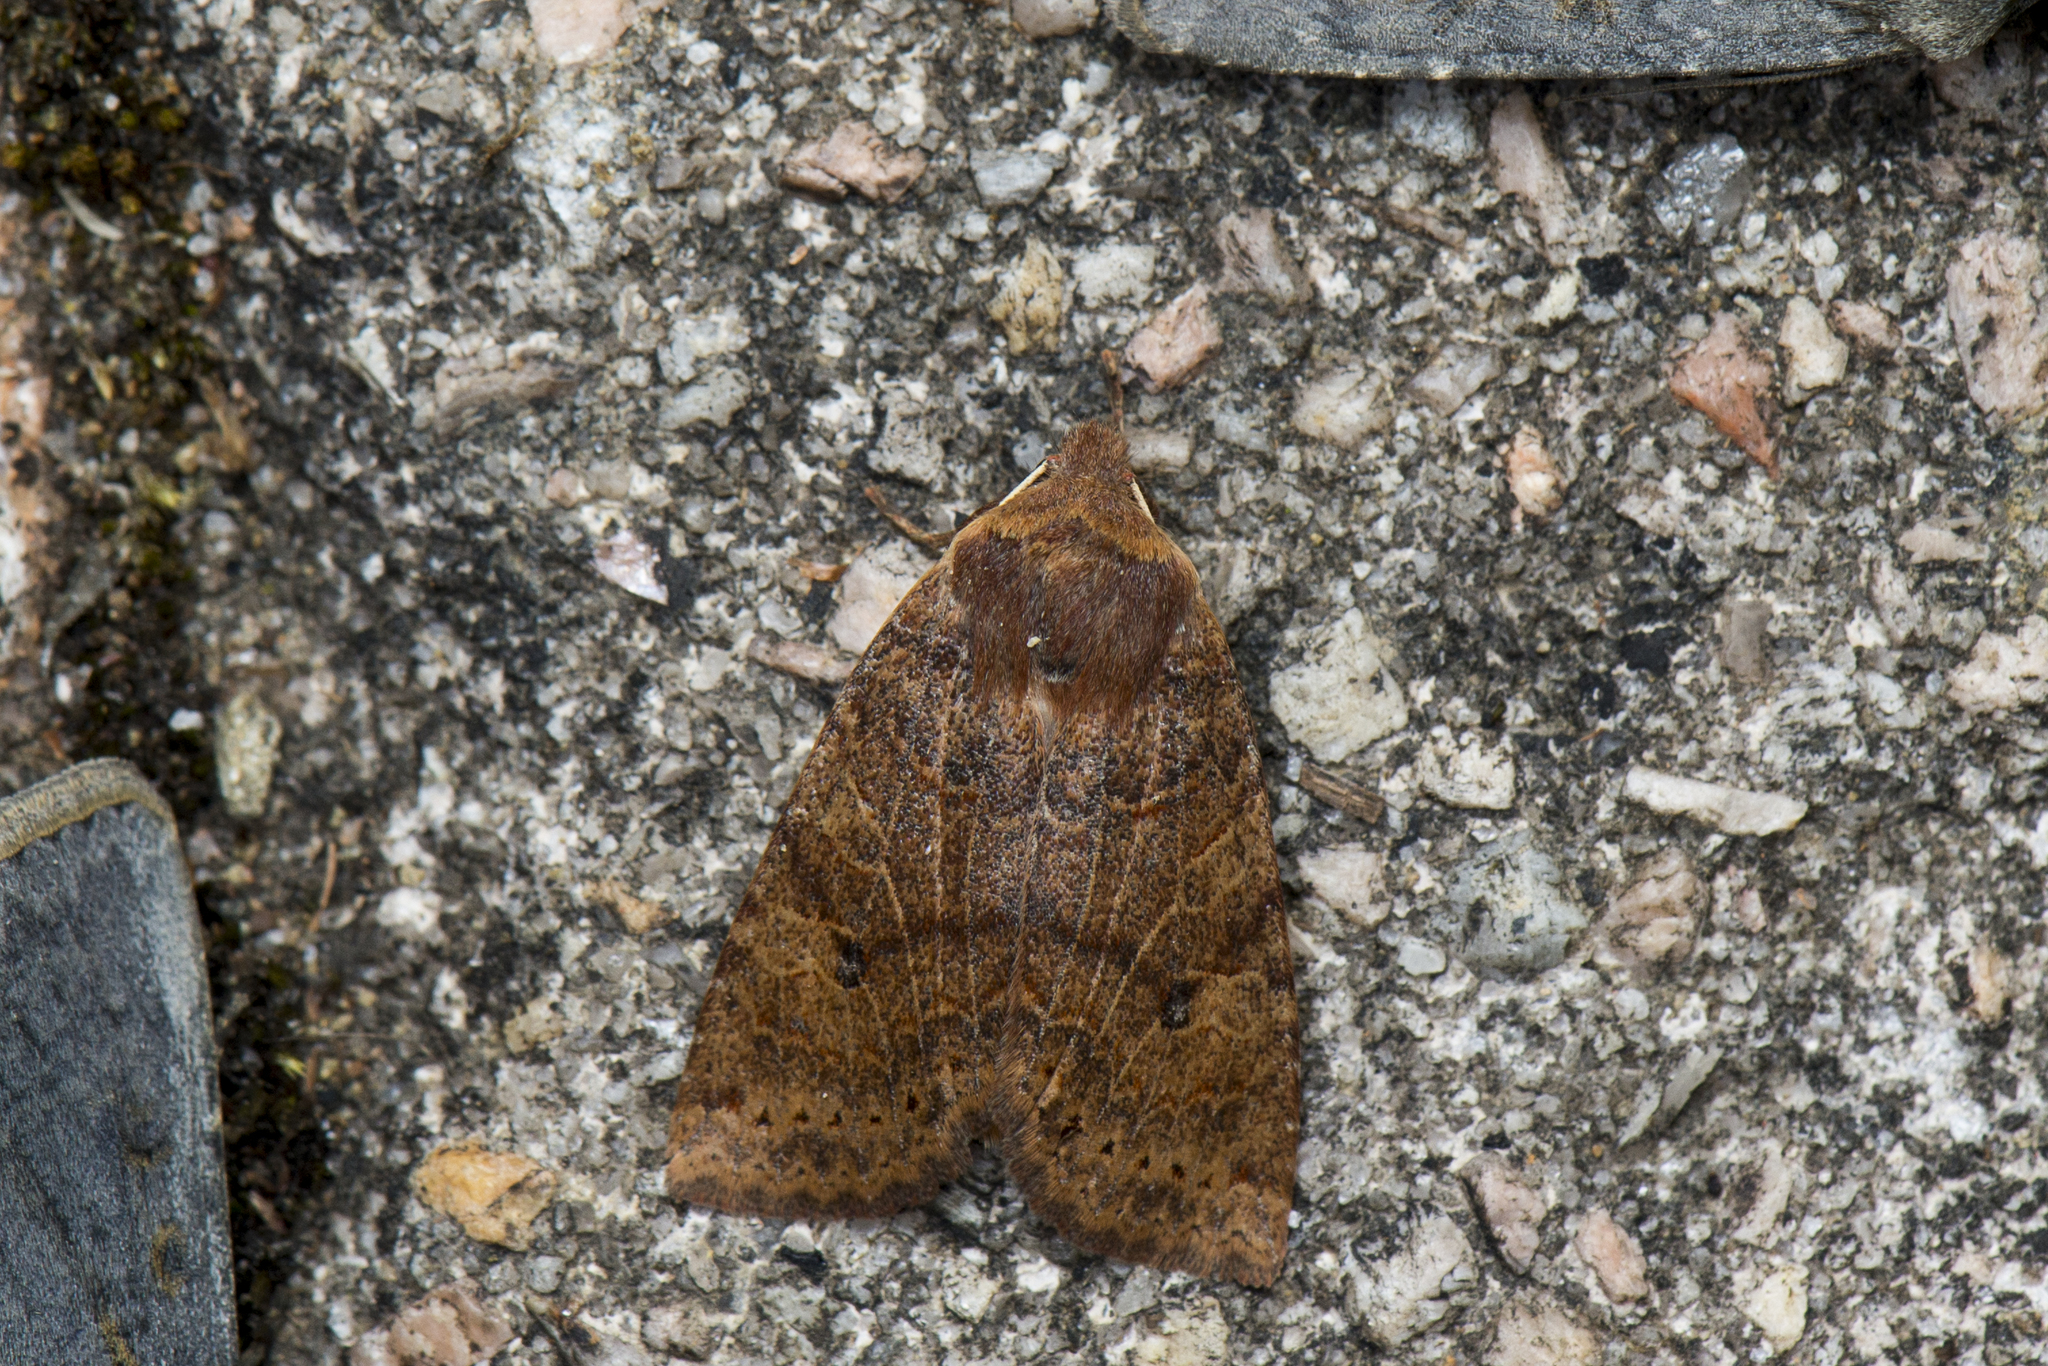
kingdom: Animalia
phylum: Arthropoda
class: Insecta
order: Lepidoptera
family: Noctuidae
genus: Conistra
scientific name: Conistra takasago
